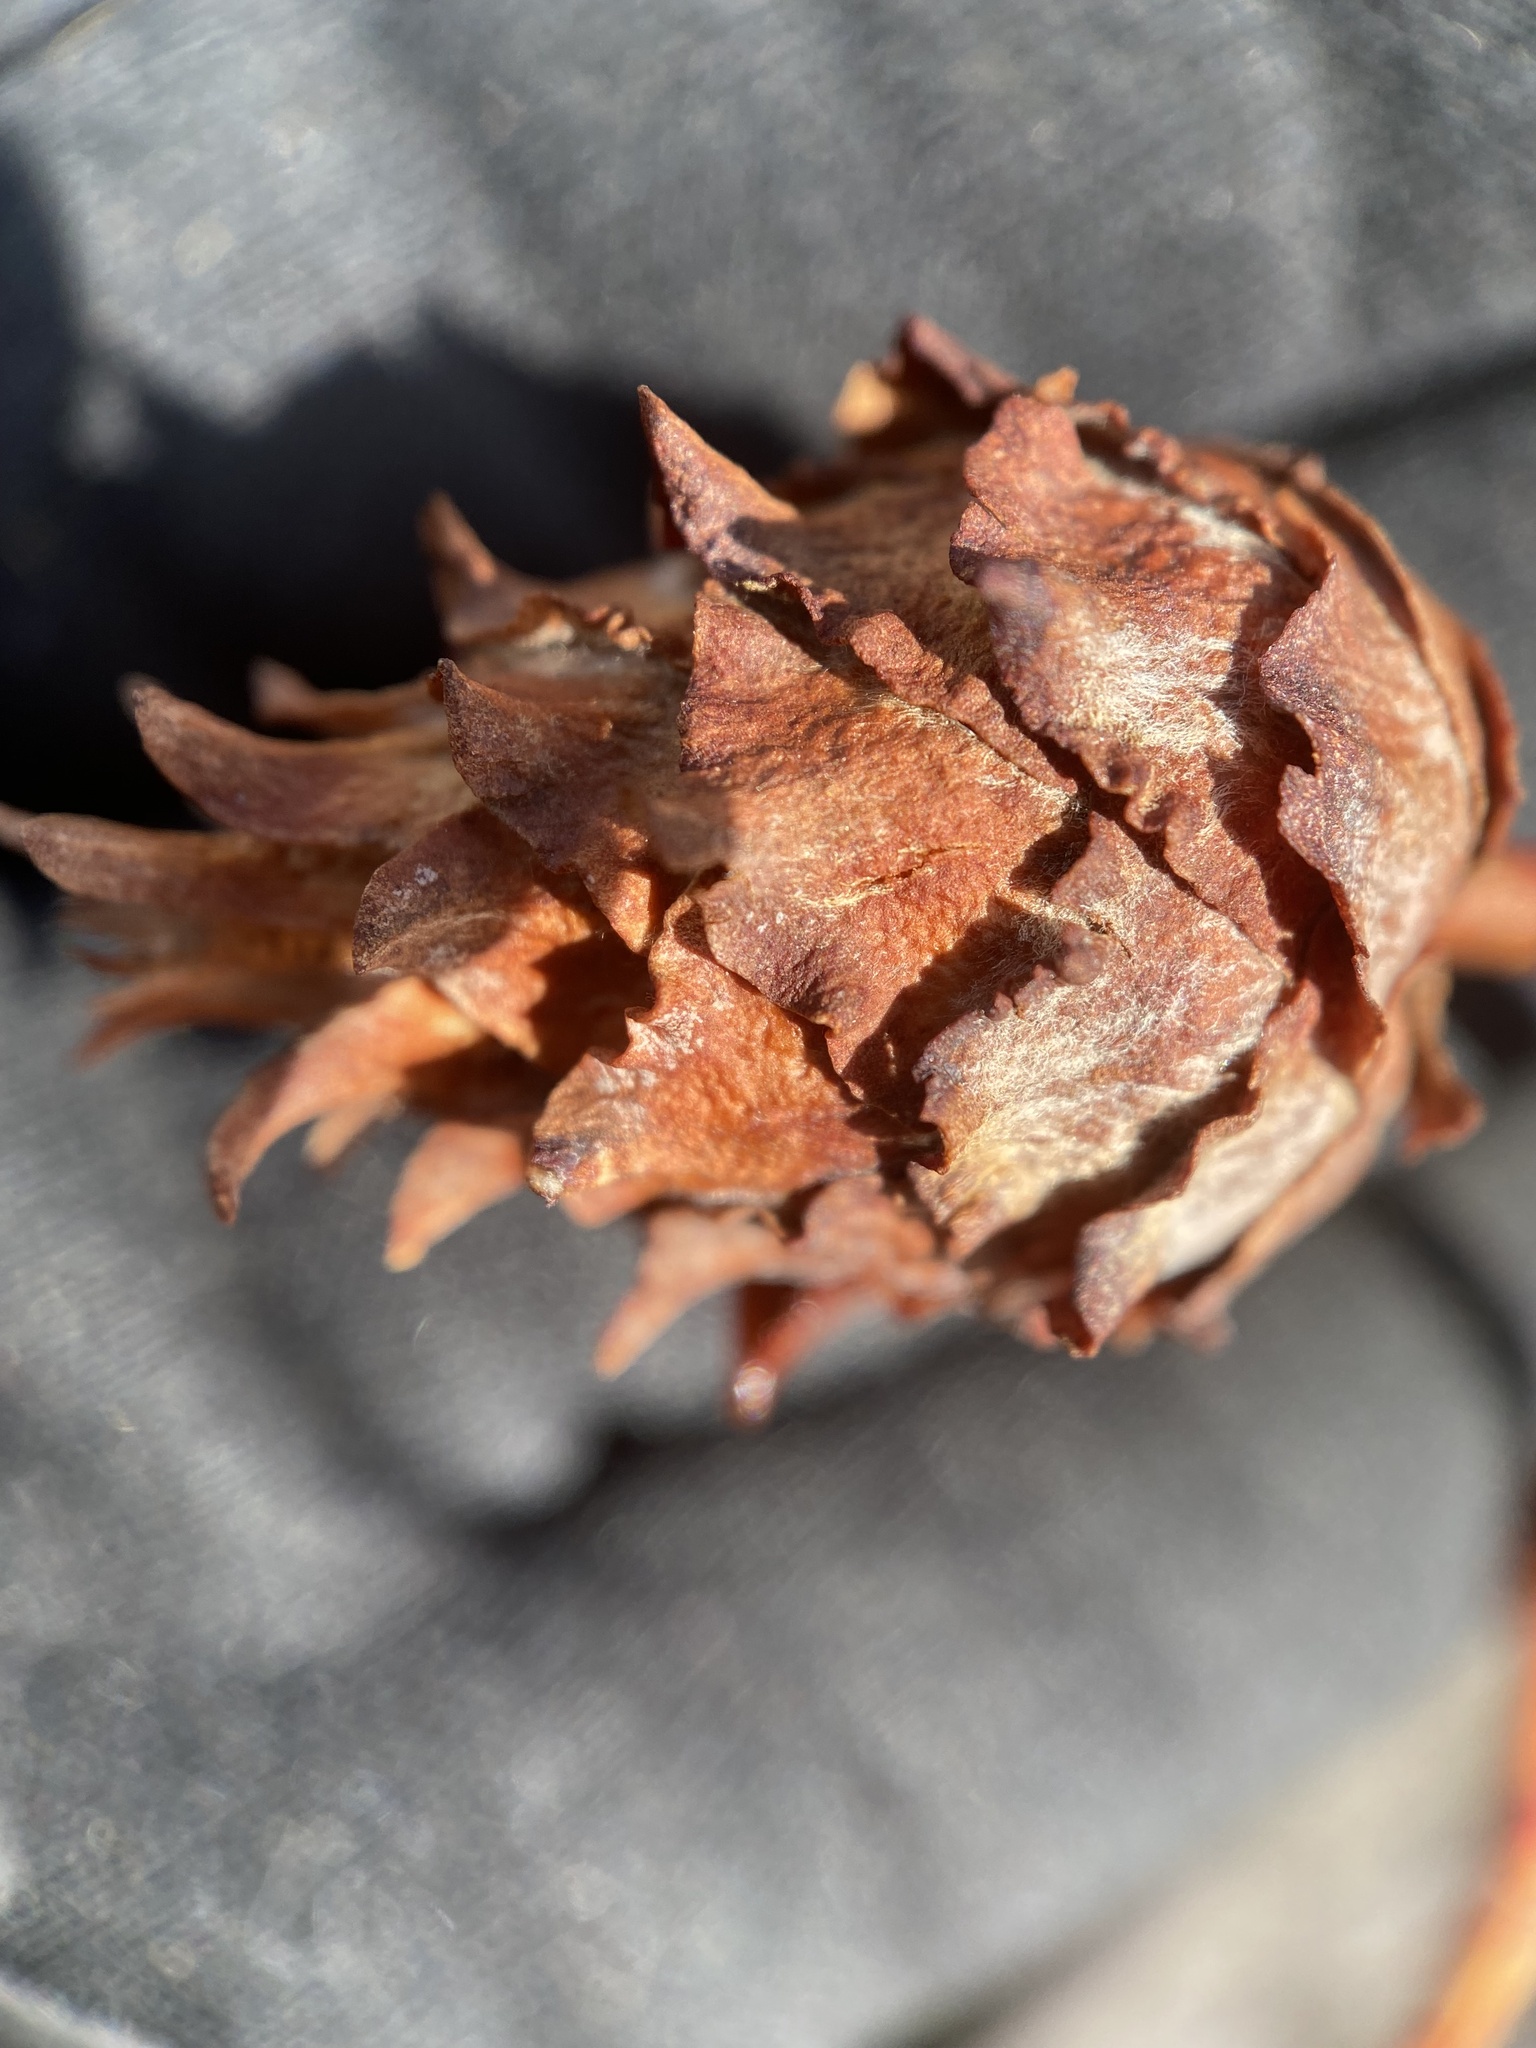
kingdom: Animalia
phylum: Arthropoda
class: Insecta
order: Diptera
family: Cecidomyiidae
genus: Rabdophaga
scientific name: Rabdophaga strobiloides
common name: Willow pinecone gall midge
